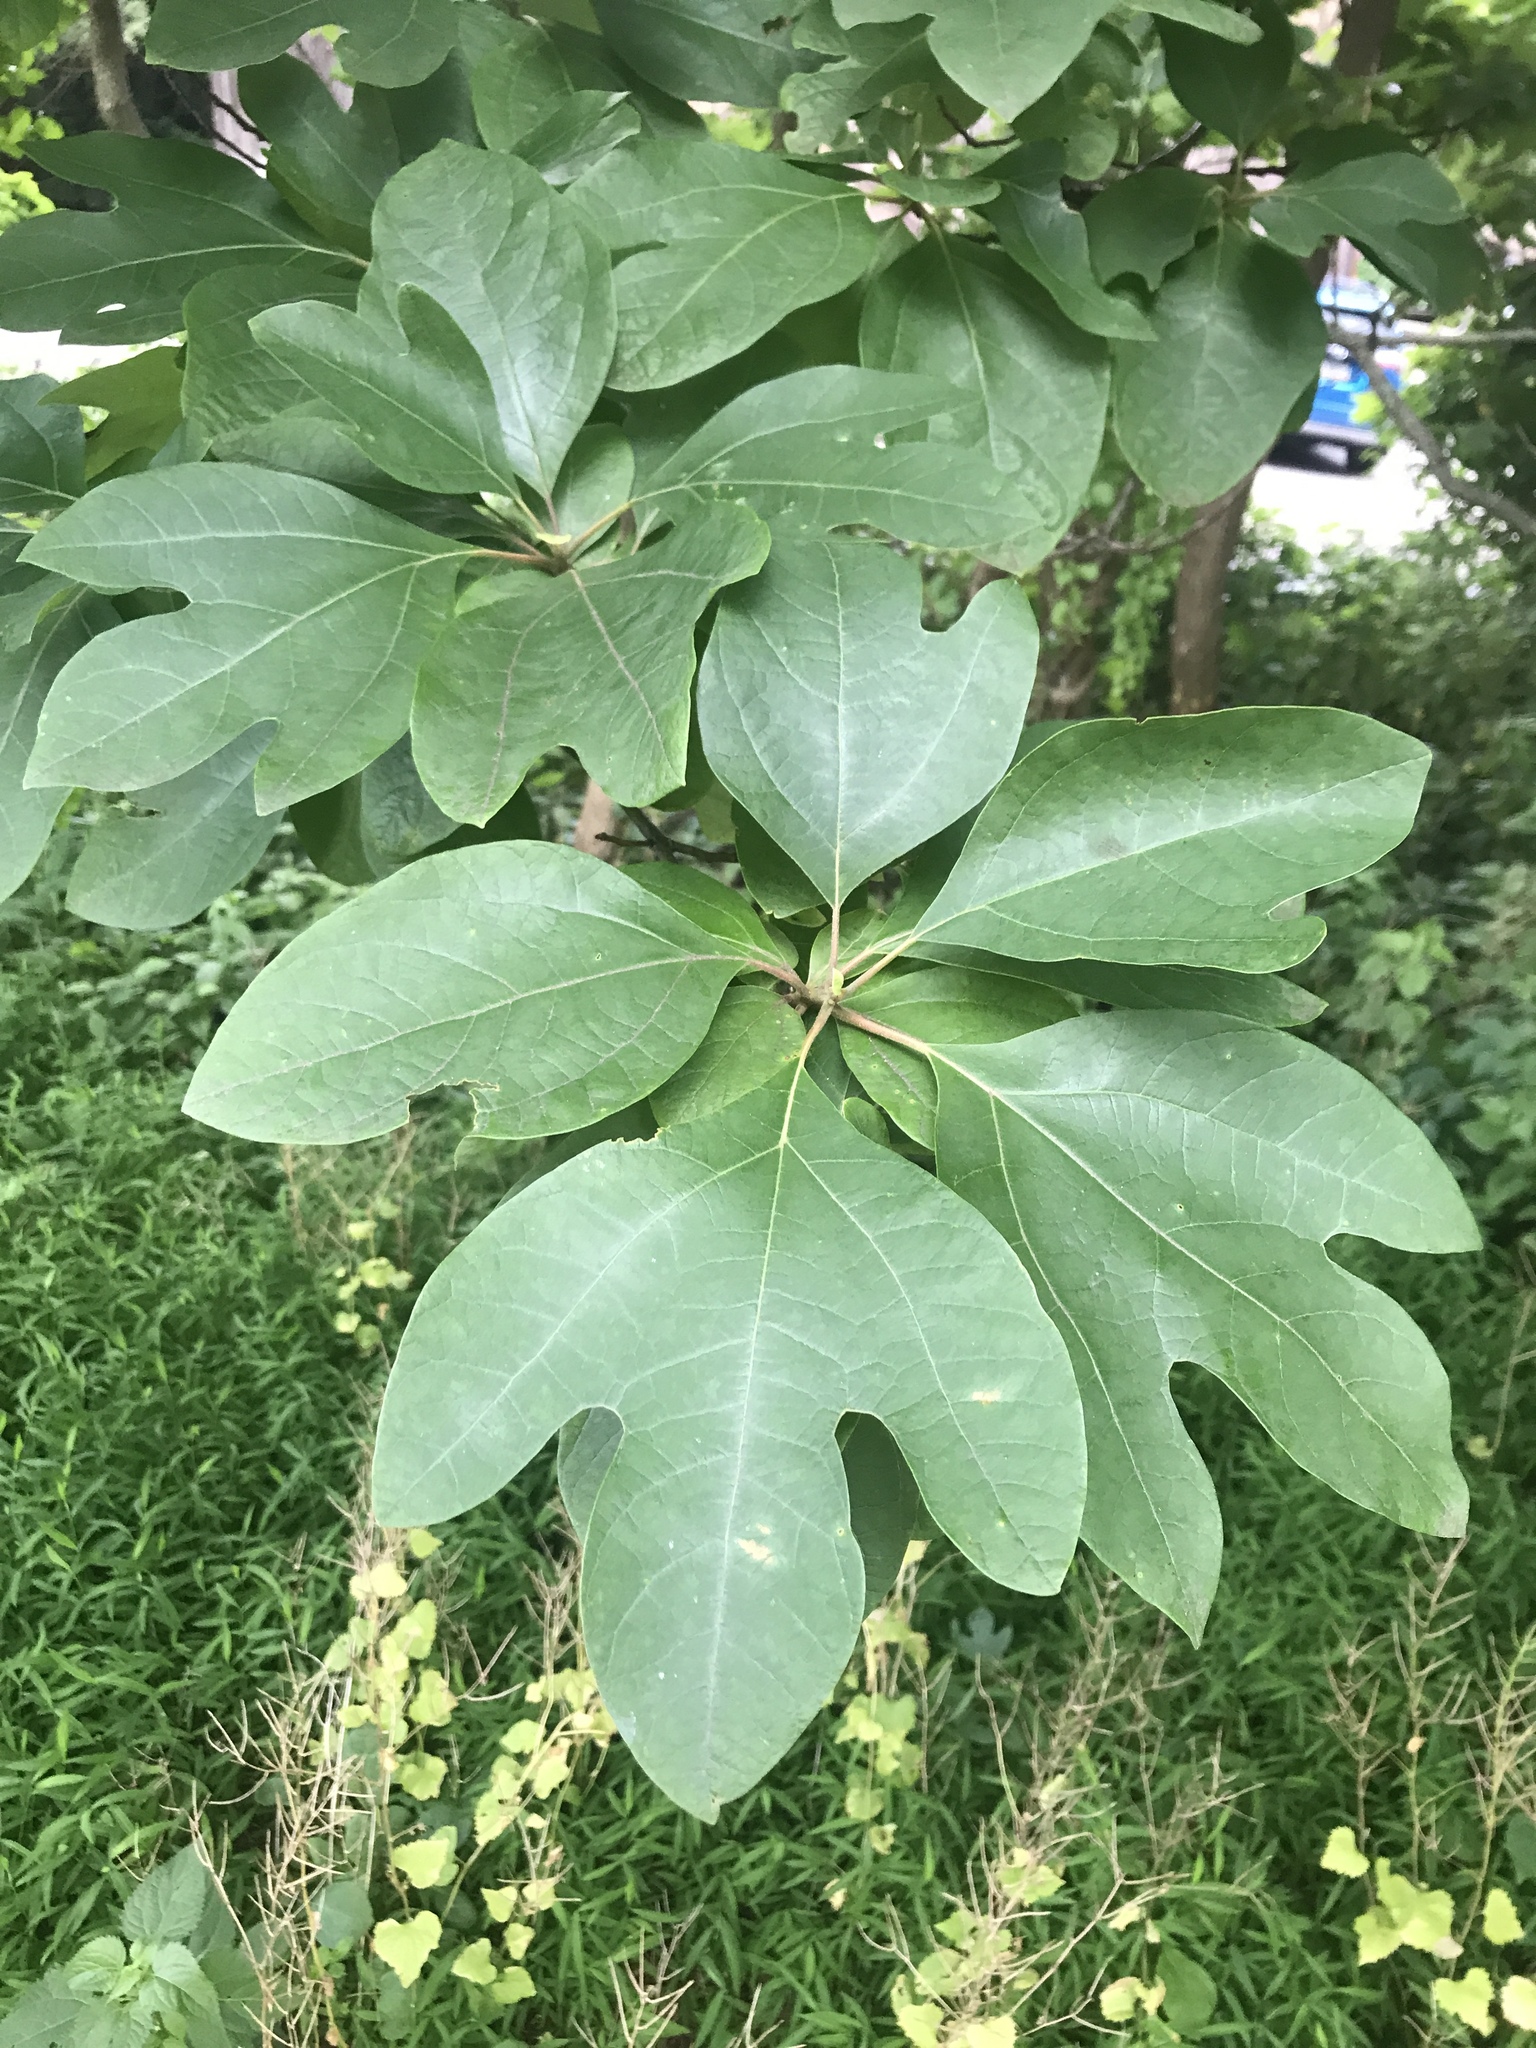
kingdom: Plantae
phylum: Tracheophyta
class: Magnoliopsida
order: Laurales
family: Lauraceae
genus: Sassafras
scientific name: Sassafras albidum
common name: Sassafras
